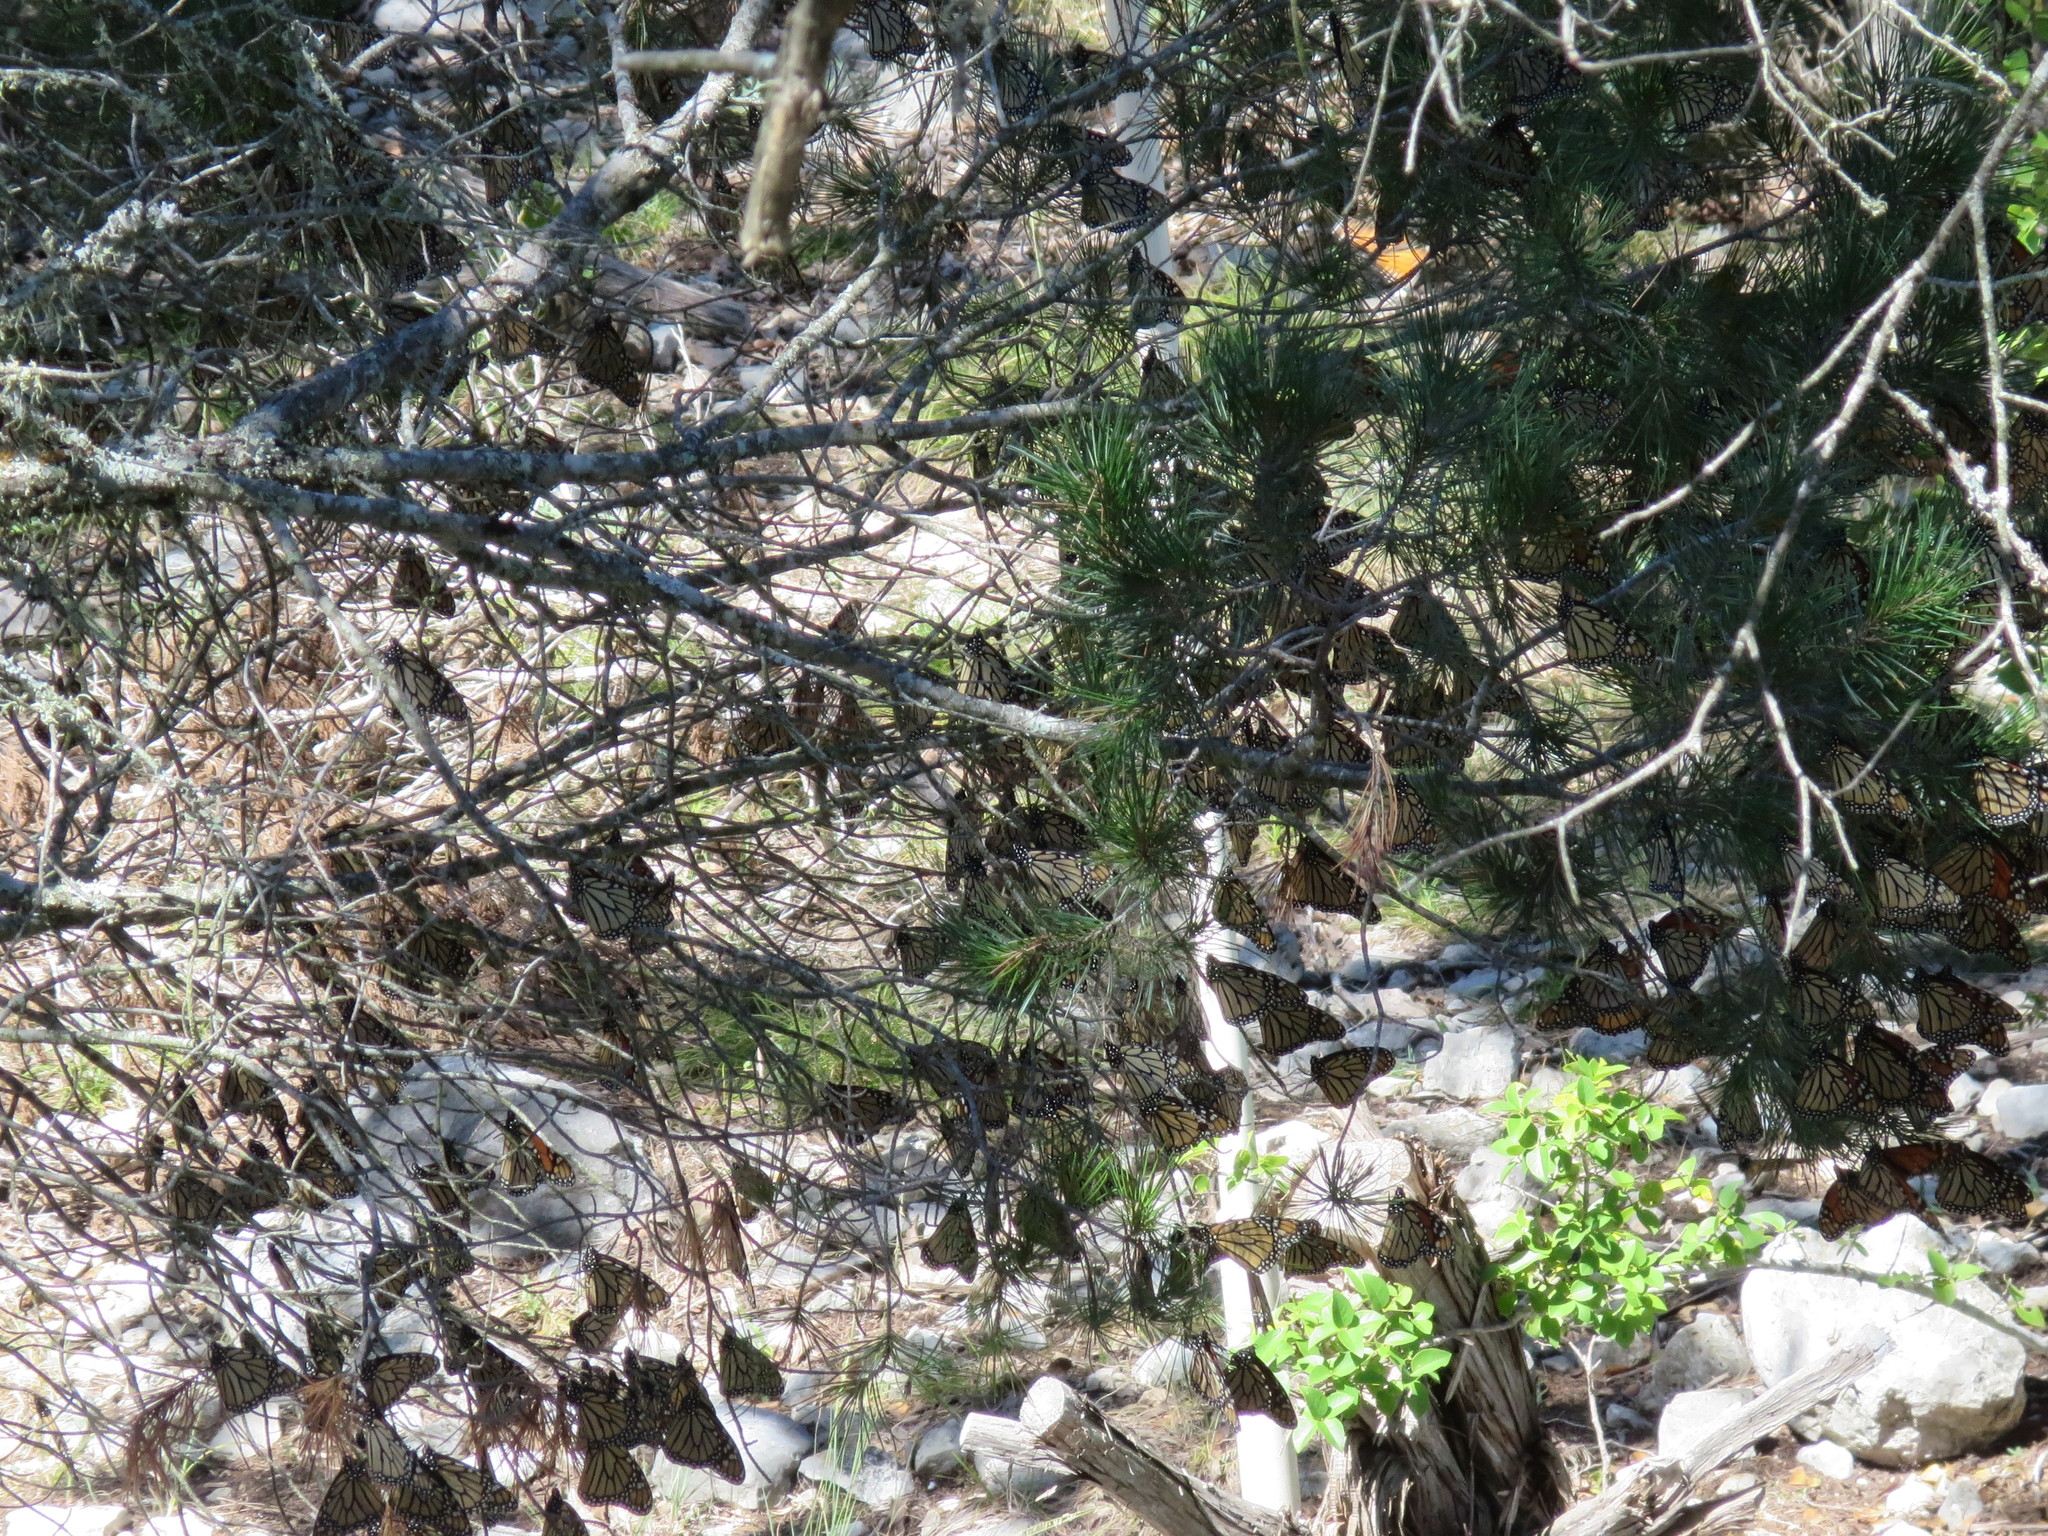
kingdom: Animalia
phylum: Arthropoda
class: Insecta
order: Lepidoptera
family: Nymphalidae
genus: Danaus
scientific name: Danaus plexippus
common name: Monarch
